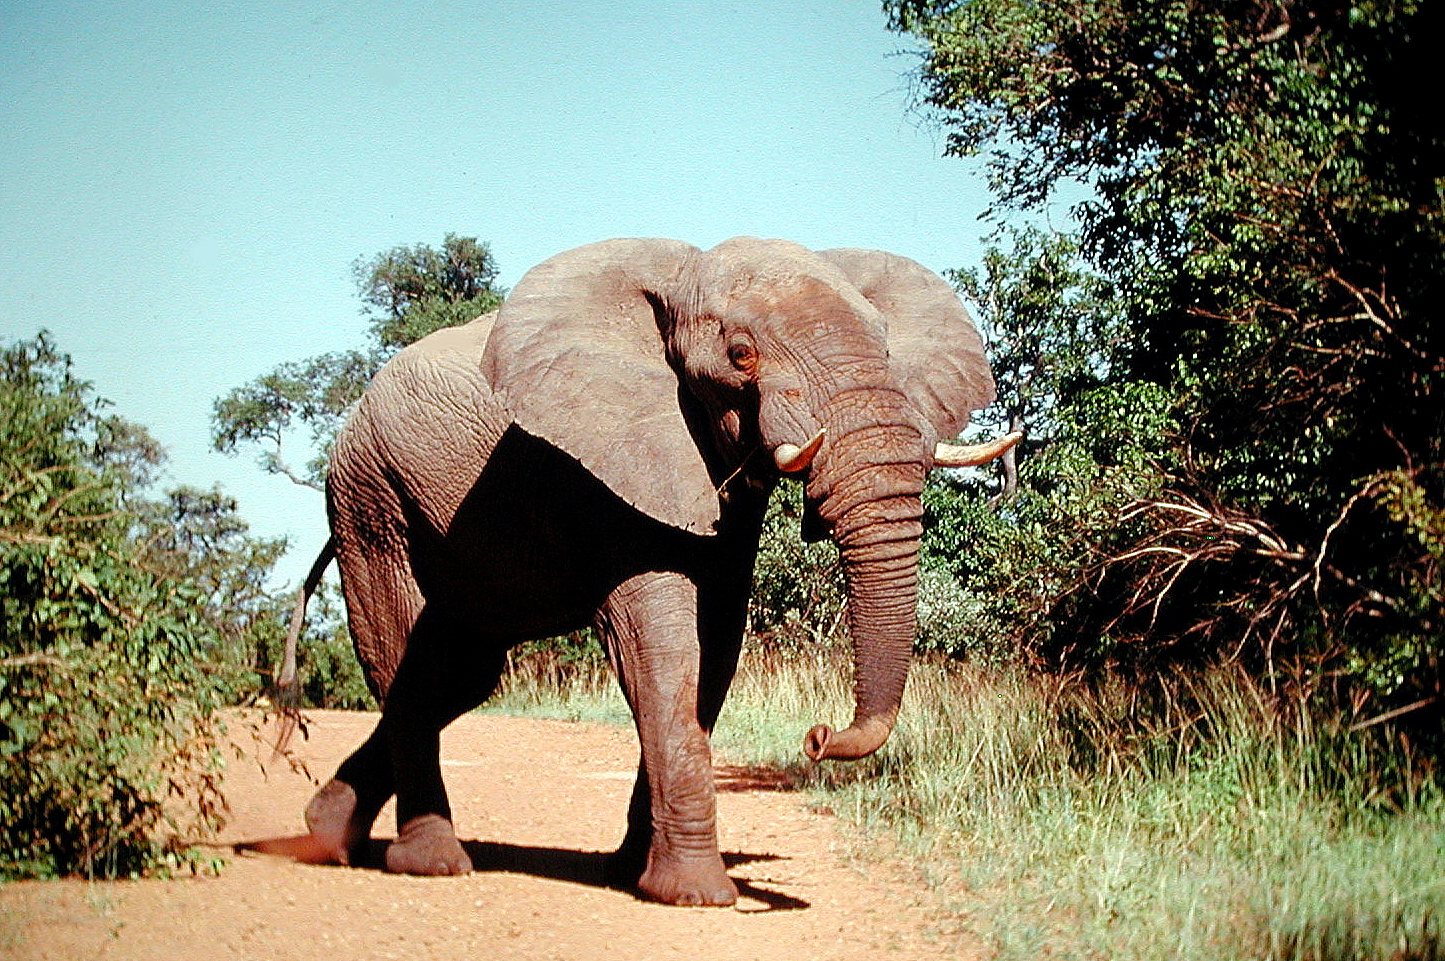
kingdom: Animalia
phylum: Chordata
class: Mammalia
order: Proboscidea
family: Elephantidae
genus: Loxodonta
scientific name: Loxodonta africana
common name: African elephant
